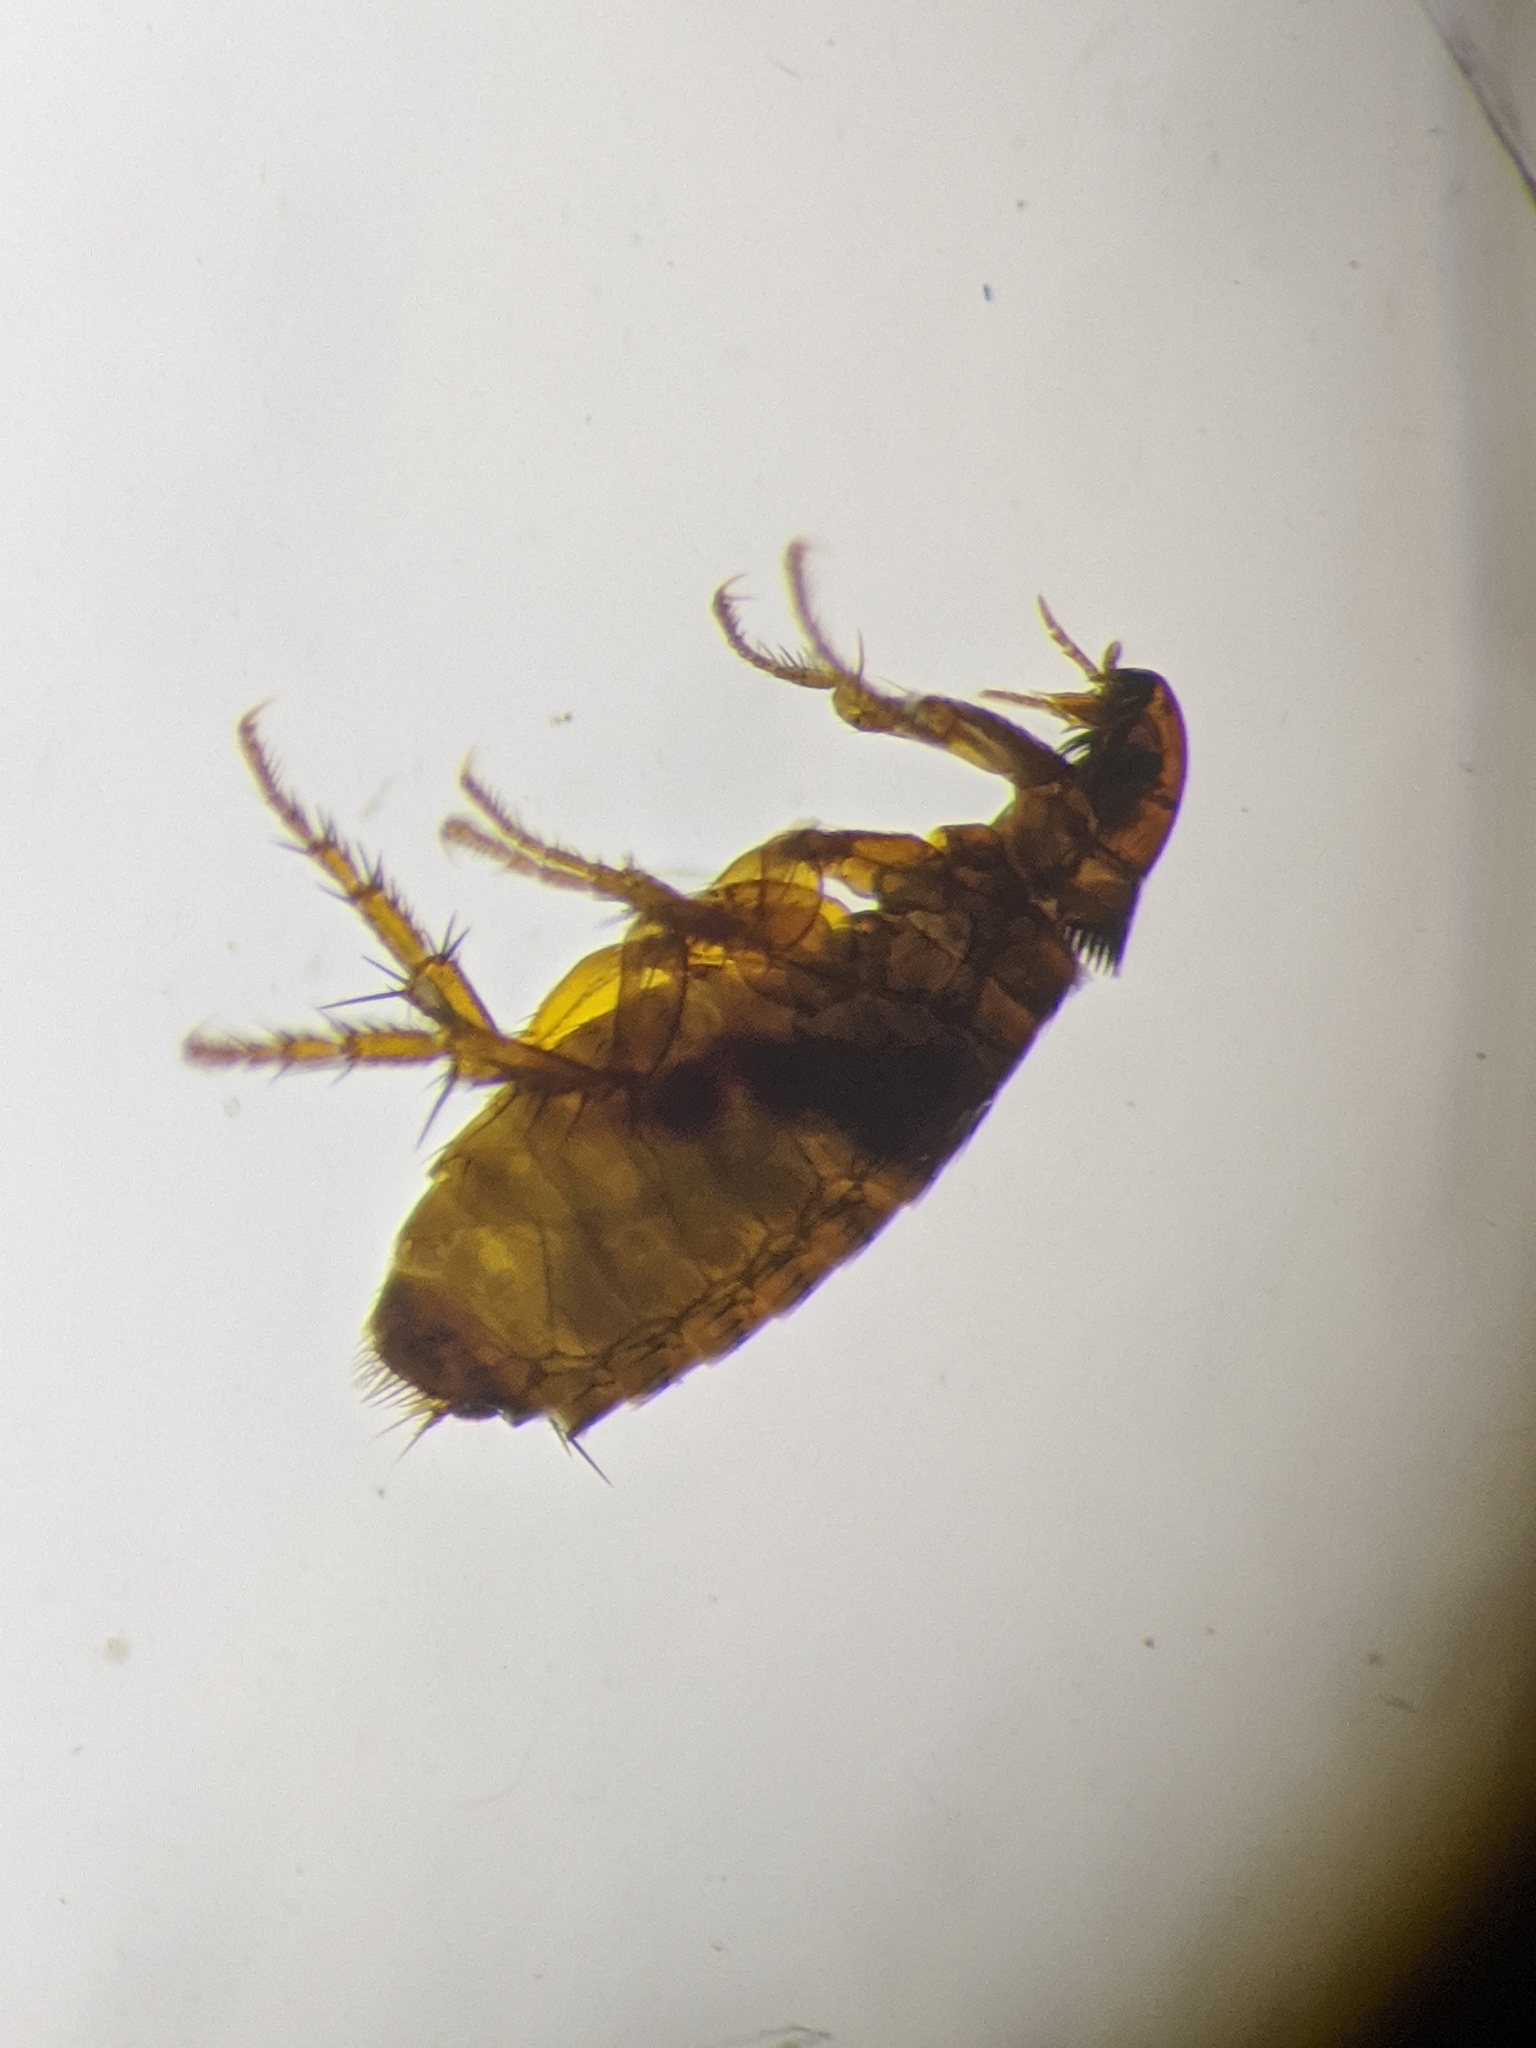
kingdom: Animalia
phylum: Arthropoda
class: Insecta
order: Siphonaptera
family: Pulicidae
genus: Ctenocephalides
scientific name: Ctenocephalides felis
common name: Cat flea
